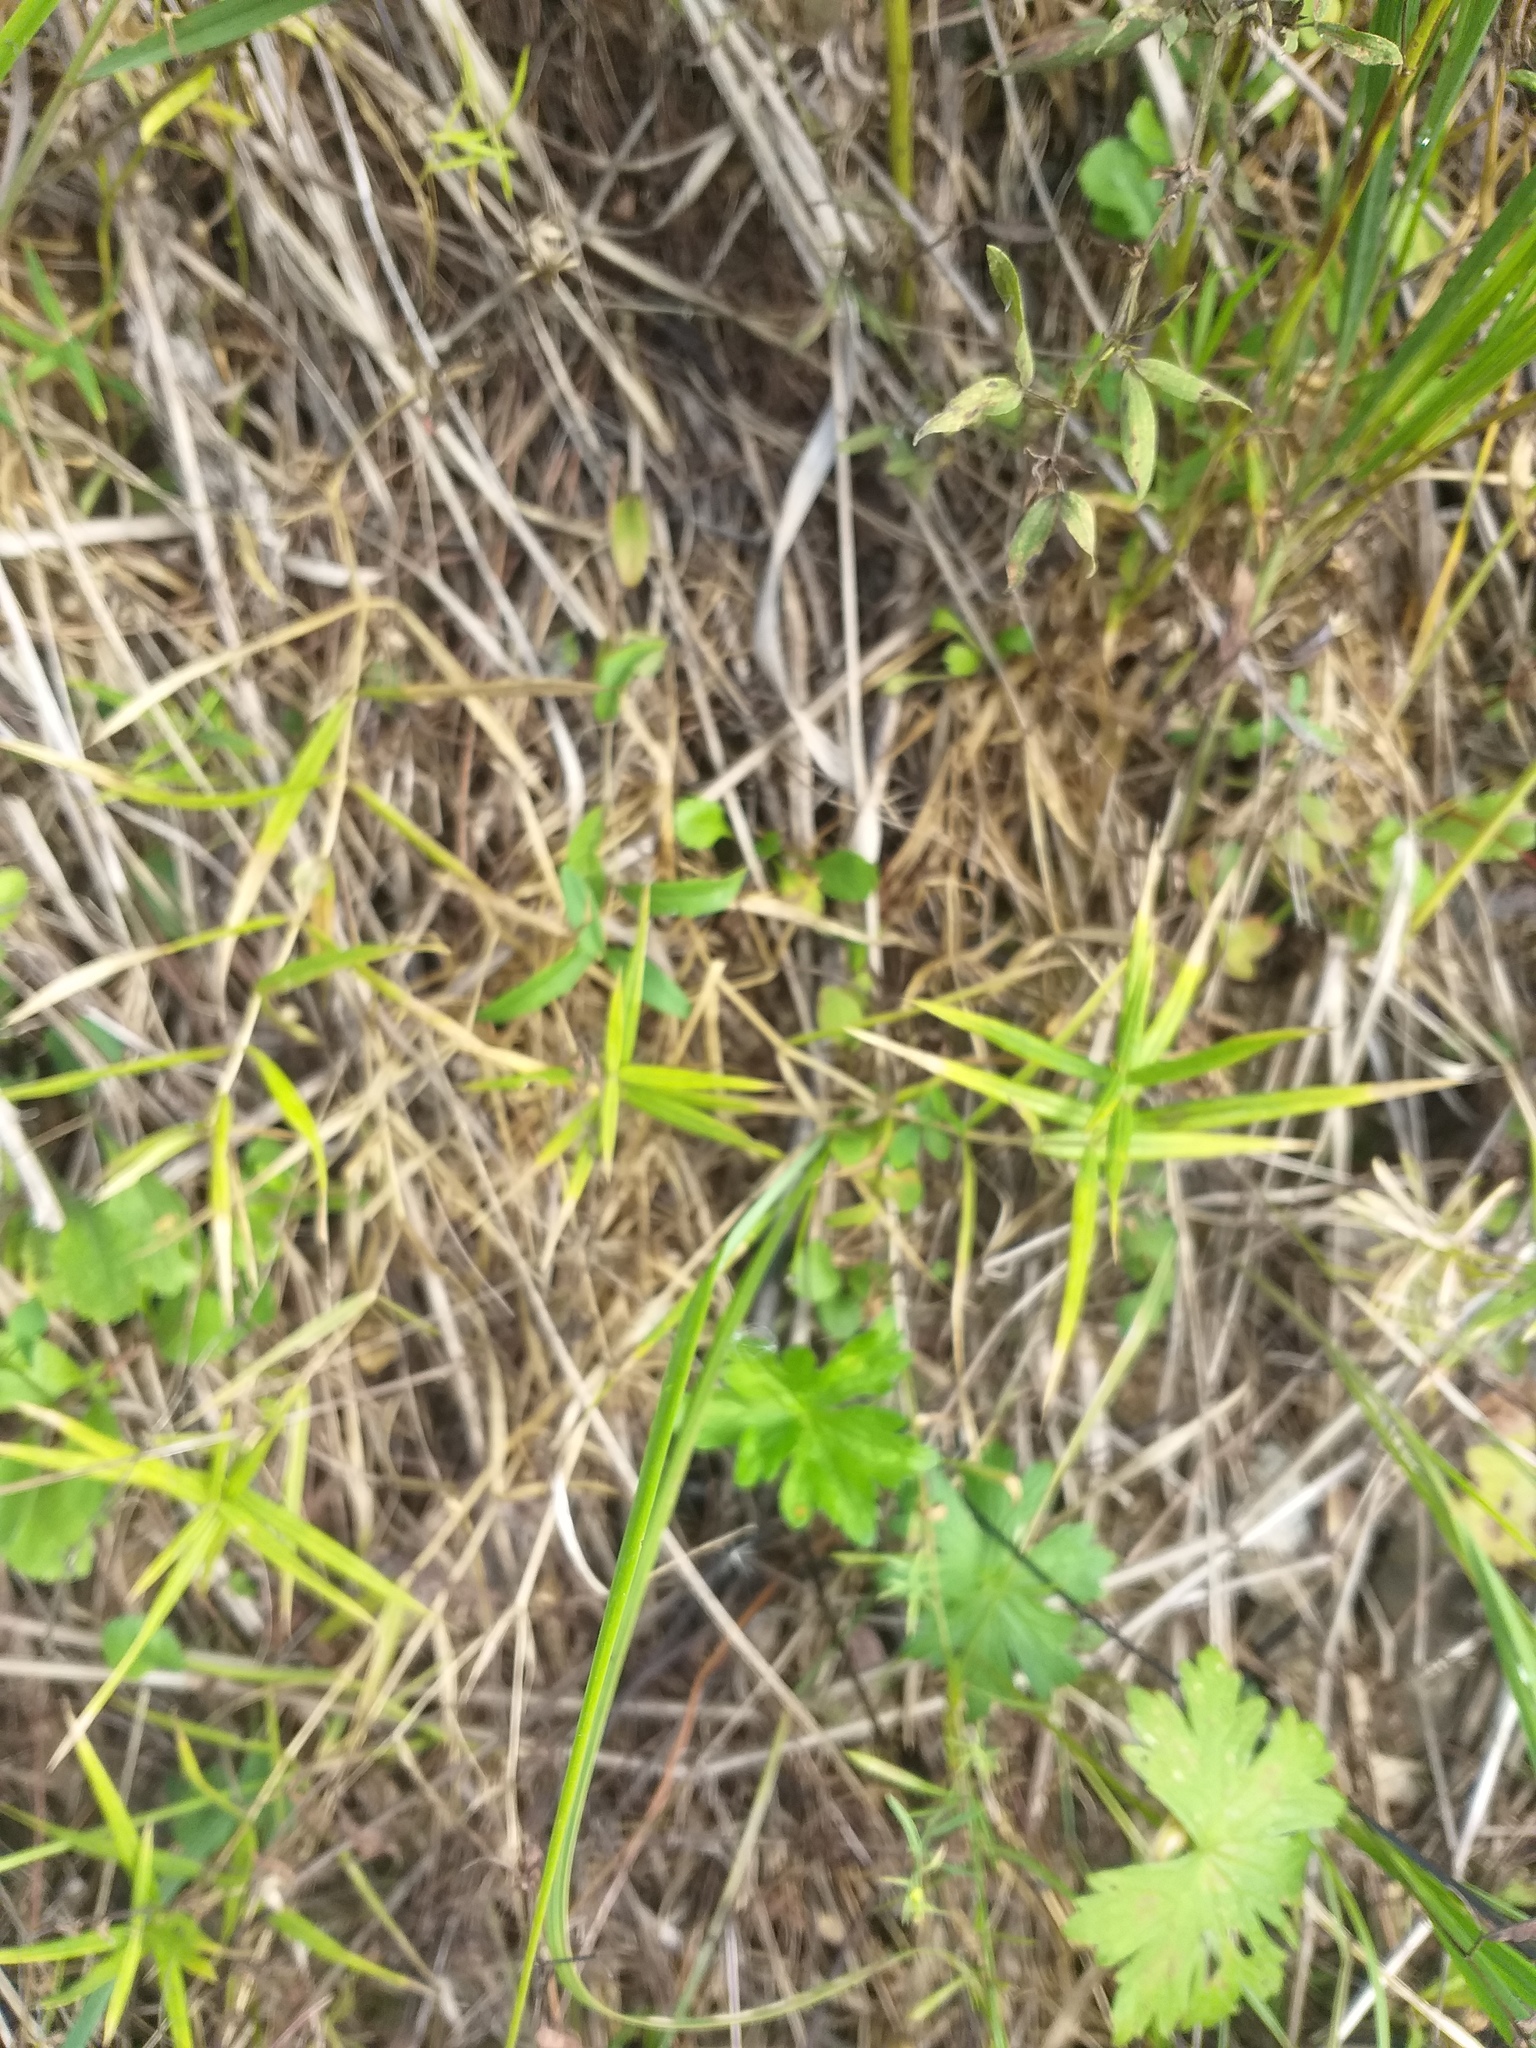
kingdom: Plantae
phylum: Tracheophyta
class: Magnoliopsida
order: Caryophyllales
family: Caryophyllaceae
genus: Rabelera
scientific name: Rabelera holostea
